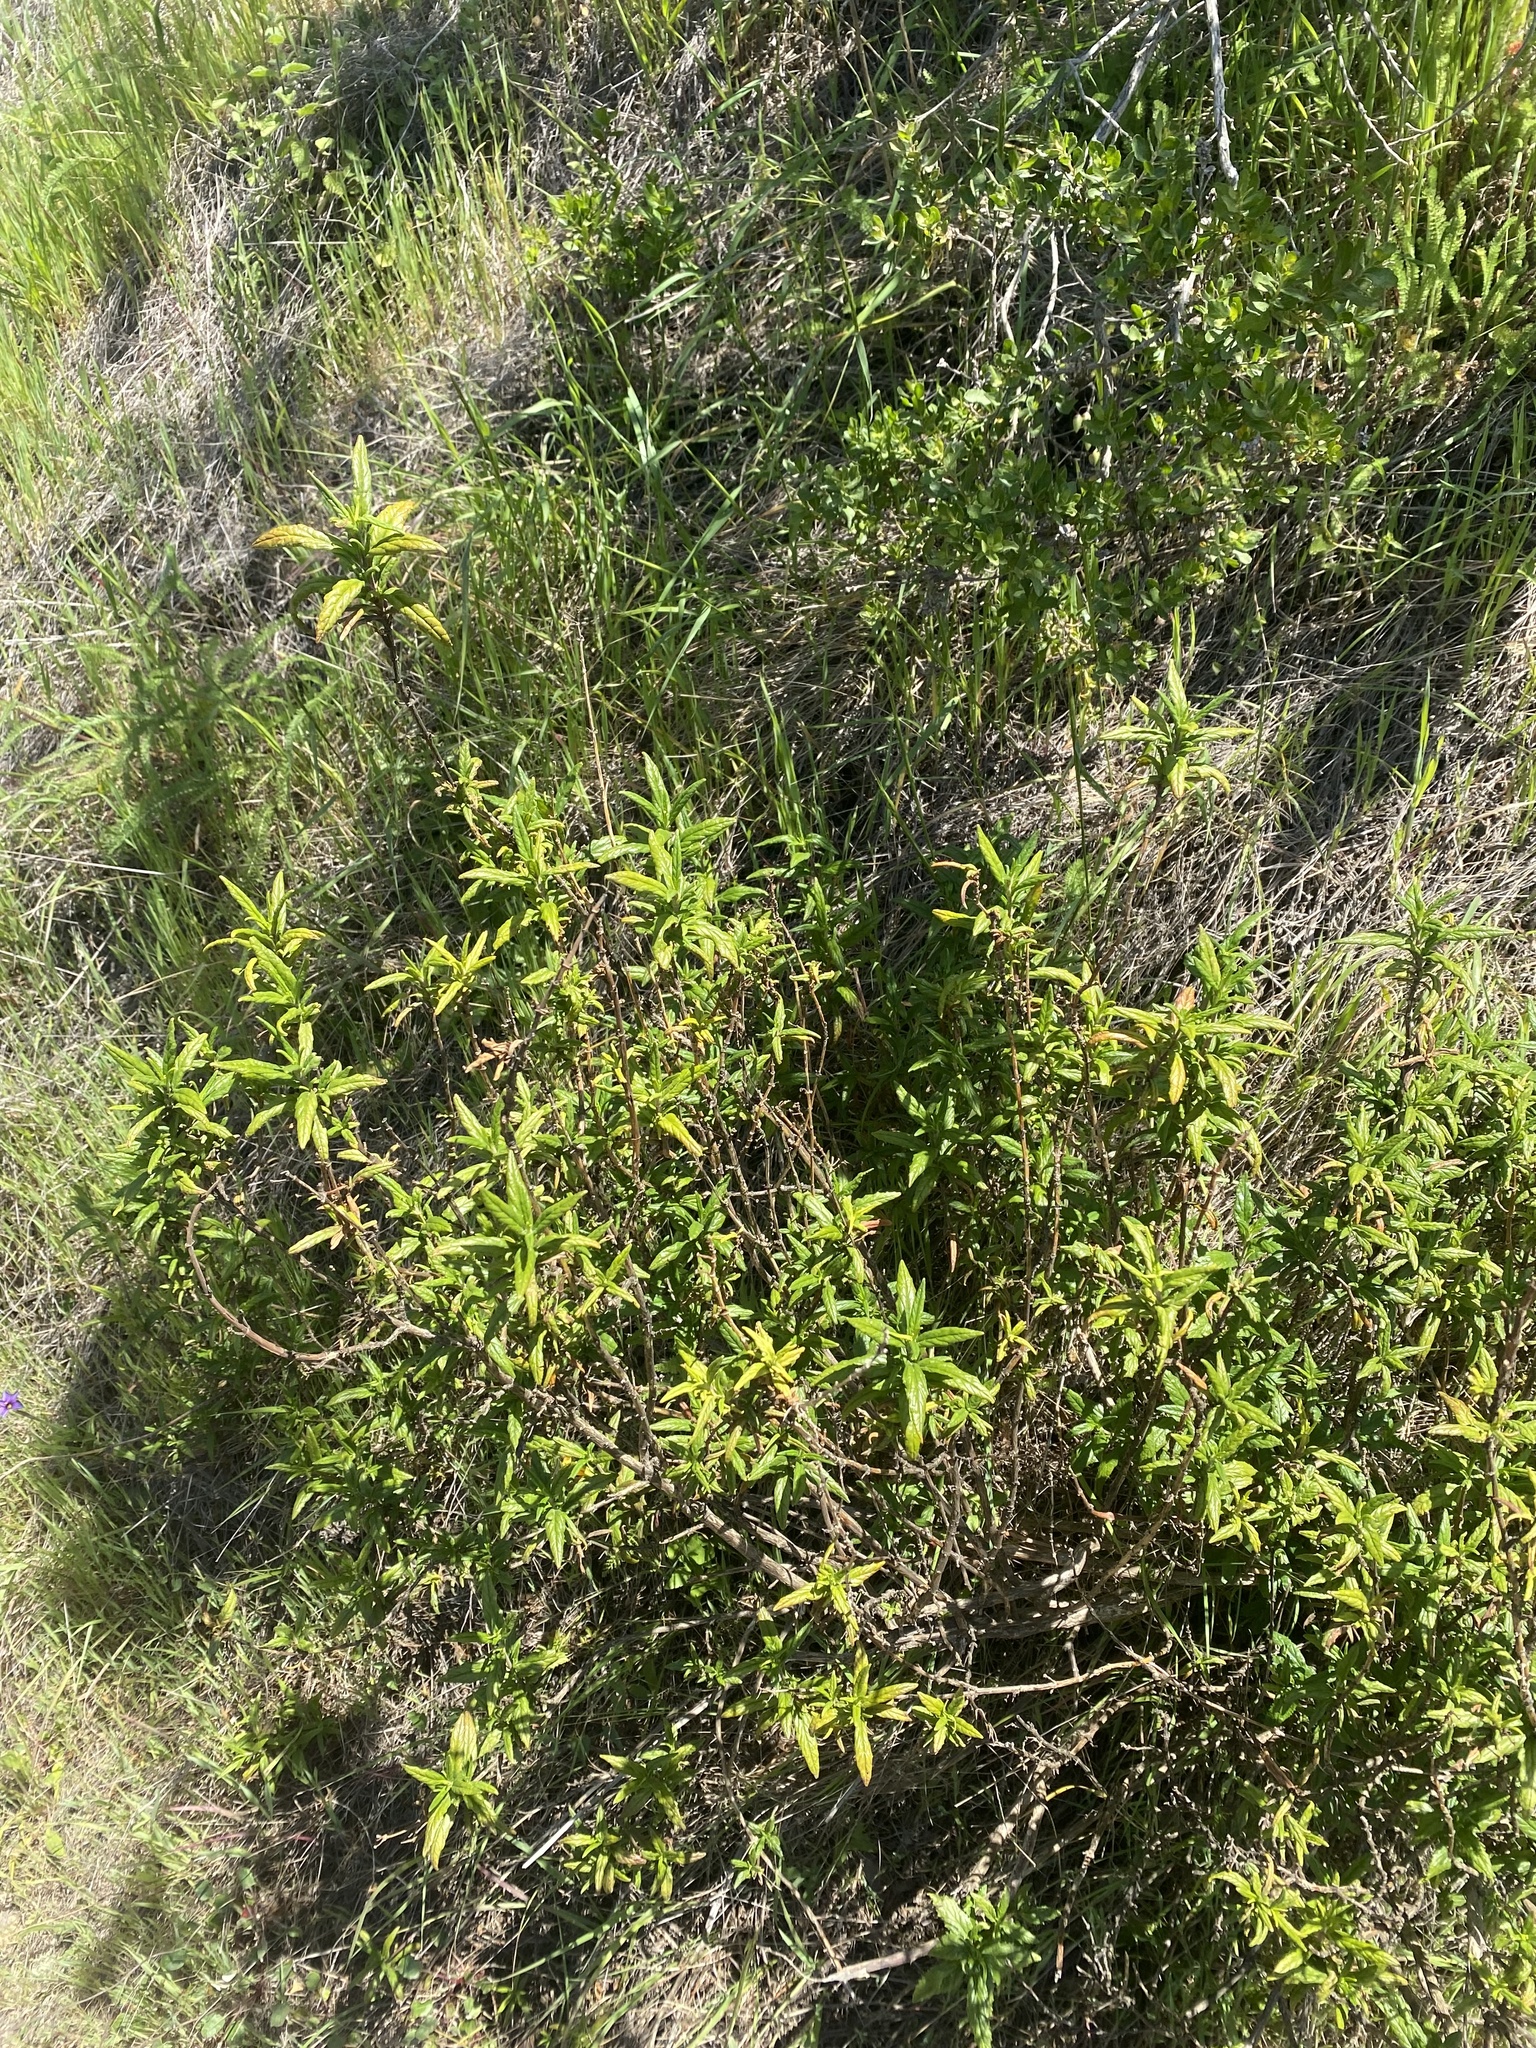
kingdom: Plantae
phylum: Tracheophyta
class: Magnoliopsida
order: Lamiales
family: Phrymaceae
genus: Diplacus
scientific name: Diplacus aurantiacus
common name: Bush monkey-flower
